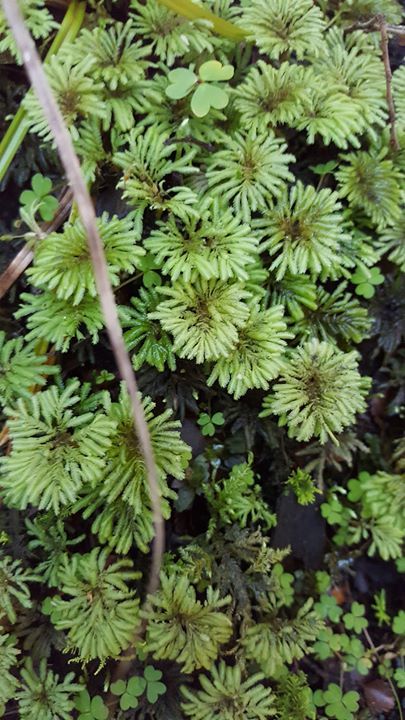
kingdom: Plantae
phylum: Bryophyta
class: Bryopsida
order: Hypopterygiales
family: Hypopterygiaceae
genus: Canalohypopterygium
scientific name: Canalohypopterygium tamariscinum
